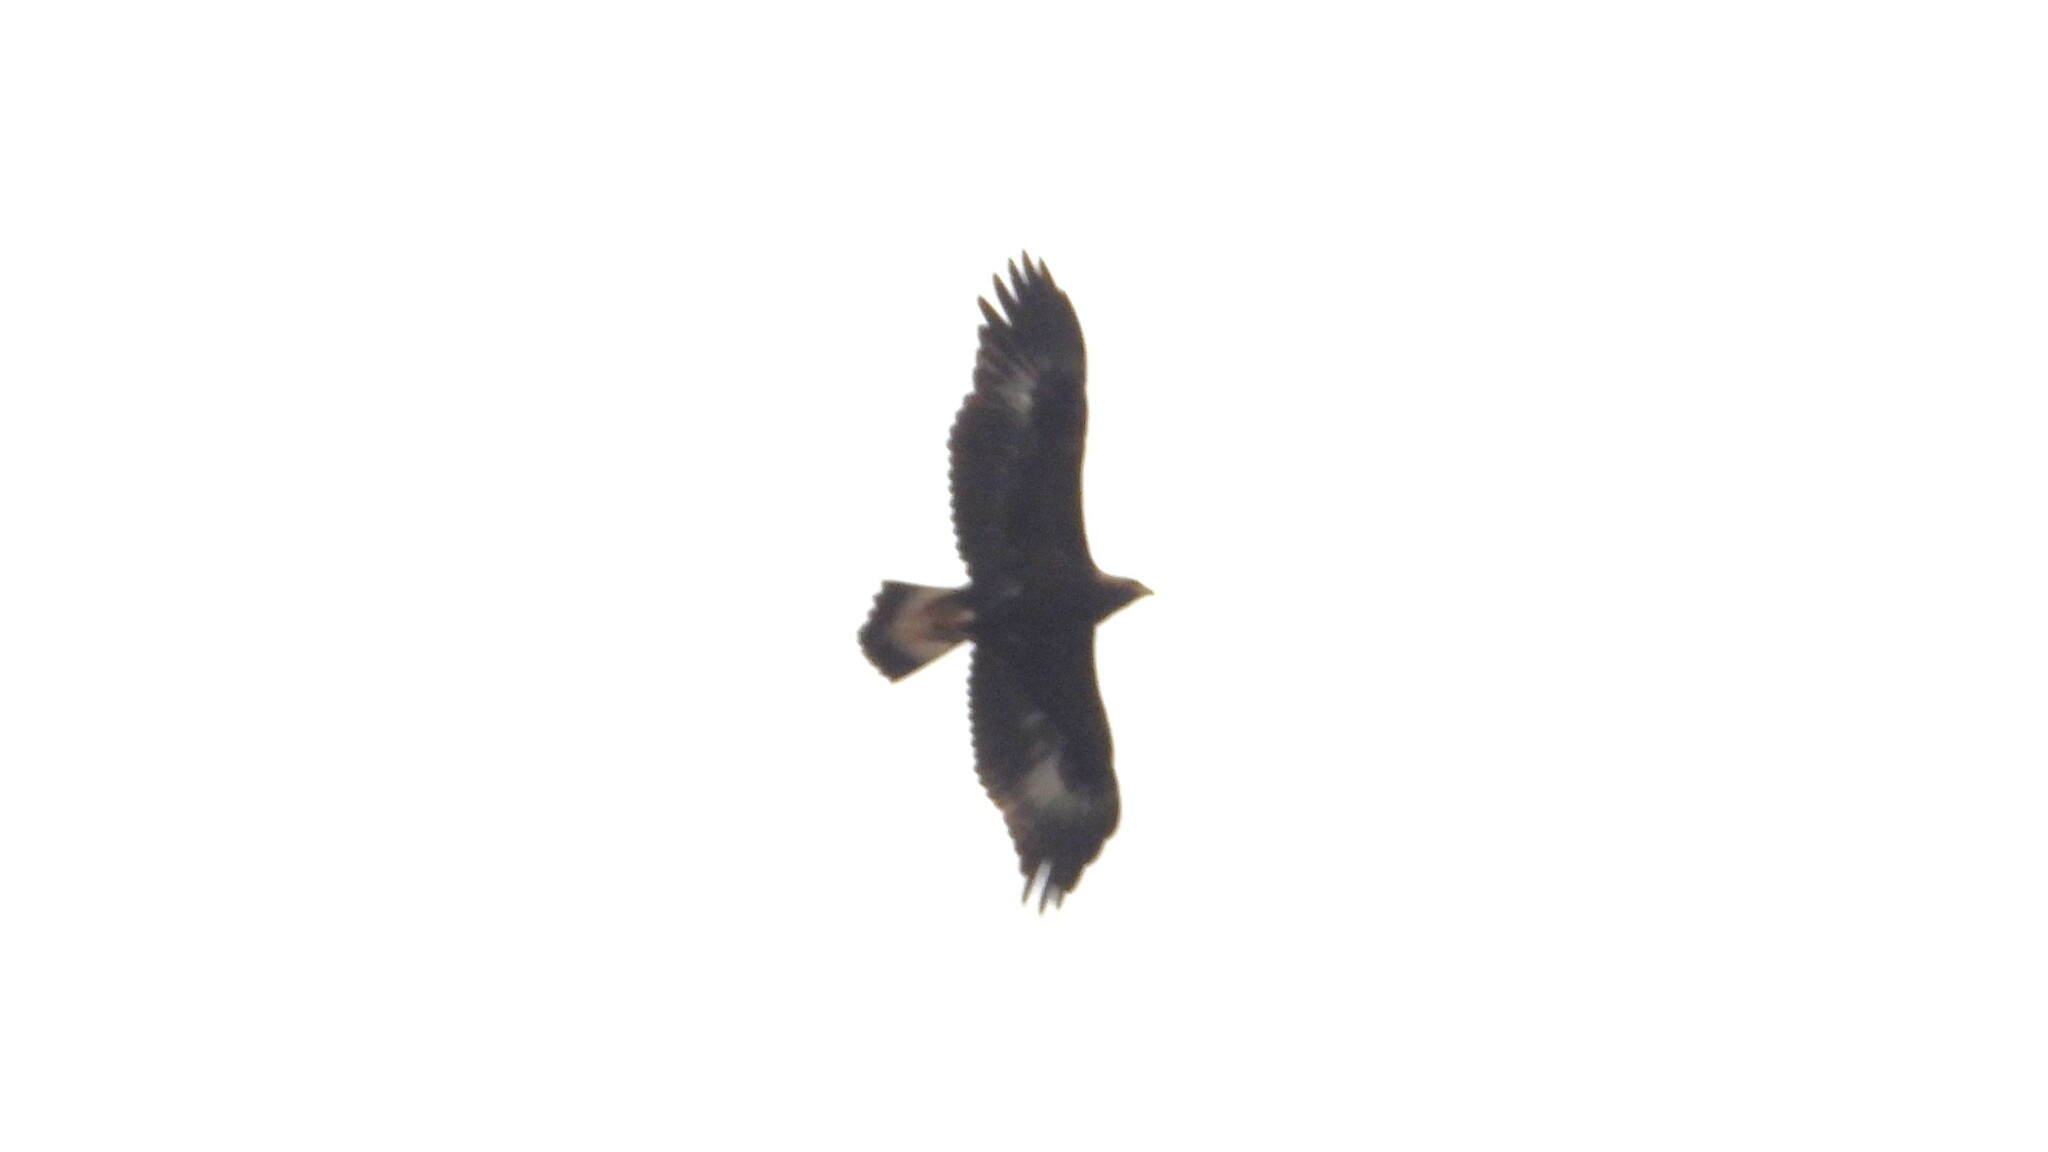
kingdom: Animalia
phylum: Chordata
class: Aves
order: Accipitriformes
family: Accipitridae
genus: Aquila
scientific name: Aquila chrysaetos
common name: Golden eagle
